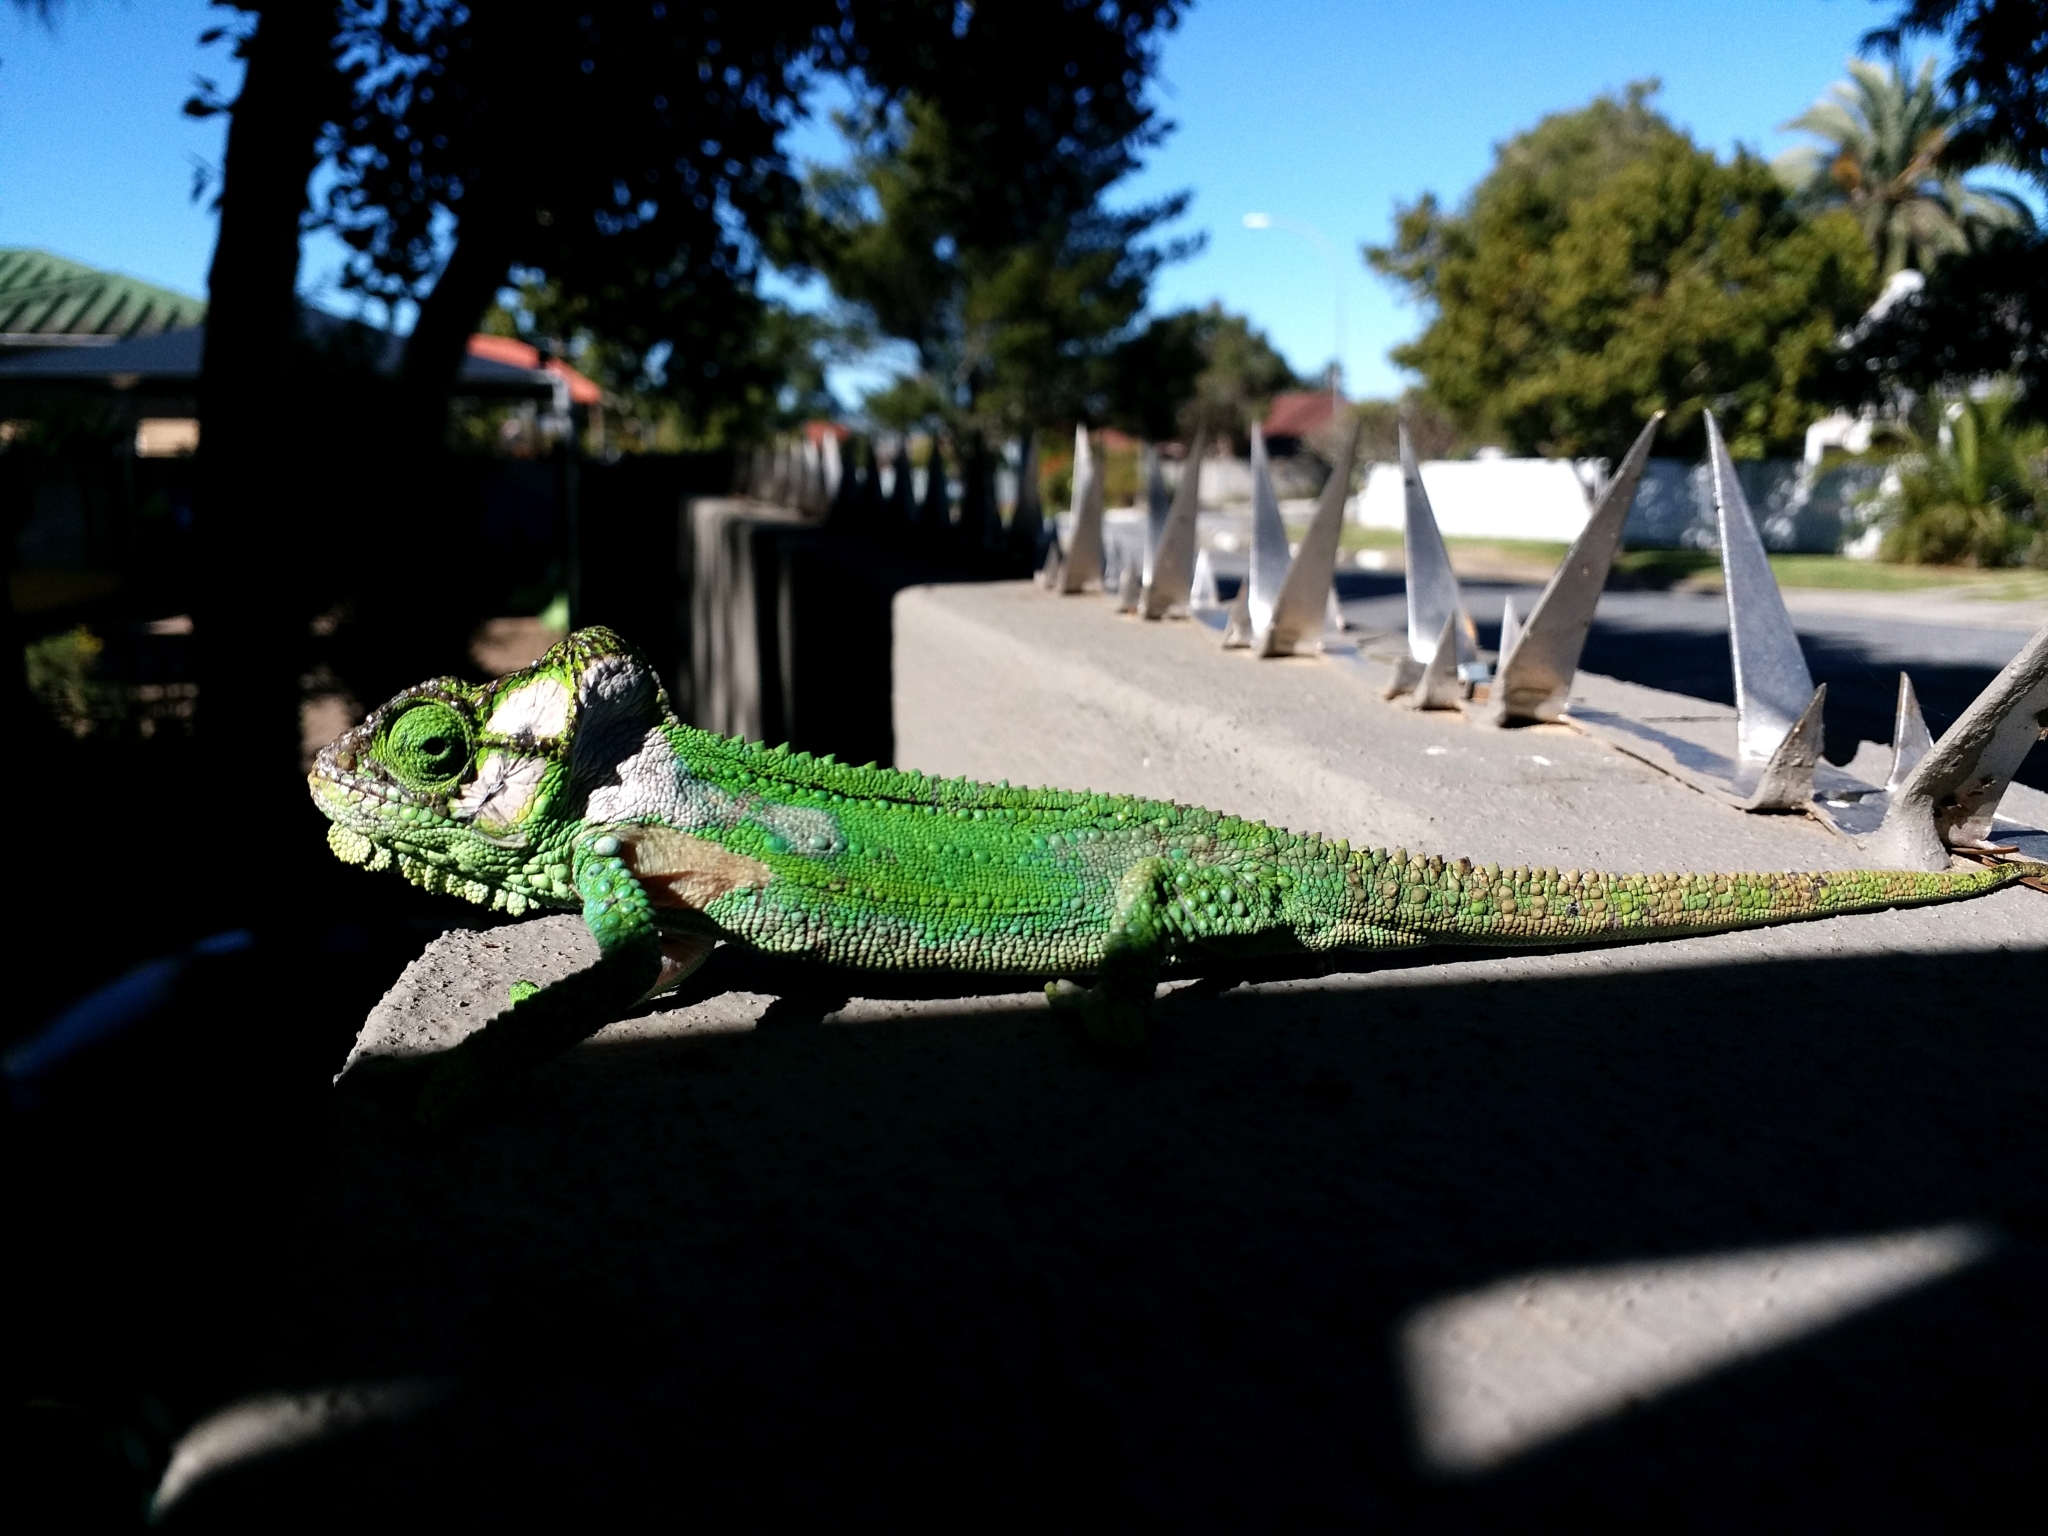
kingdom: Animalia
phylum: Chordata
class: Squamata
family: Chamaeleonidae
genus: Bradypodion
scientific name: Bradypodion damaranum
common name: Knysna dwarf chameleon
